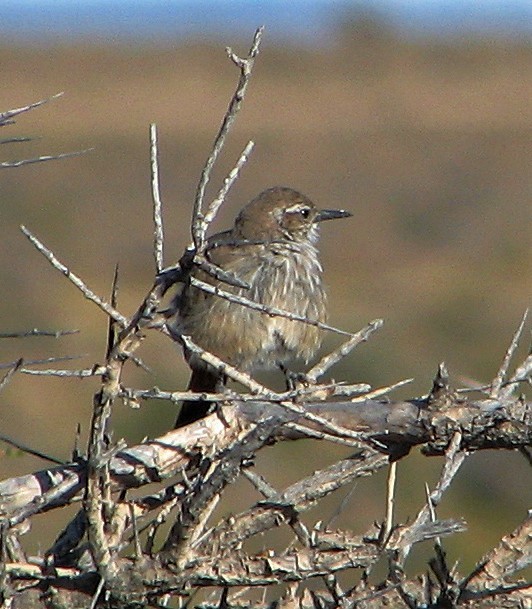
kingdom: Animalia
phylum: Chordata
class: Aves
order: Passeriformes
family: Furnariidae
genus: Eremobius
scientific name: Eremobius phoenicurus
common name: Band-tailed eremobius
